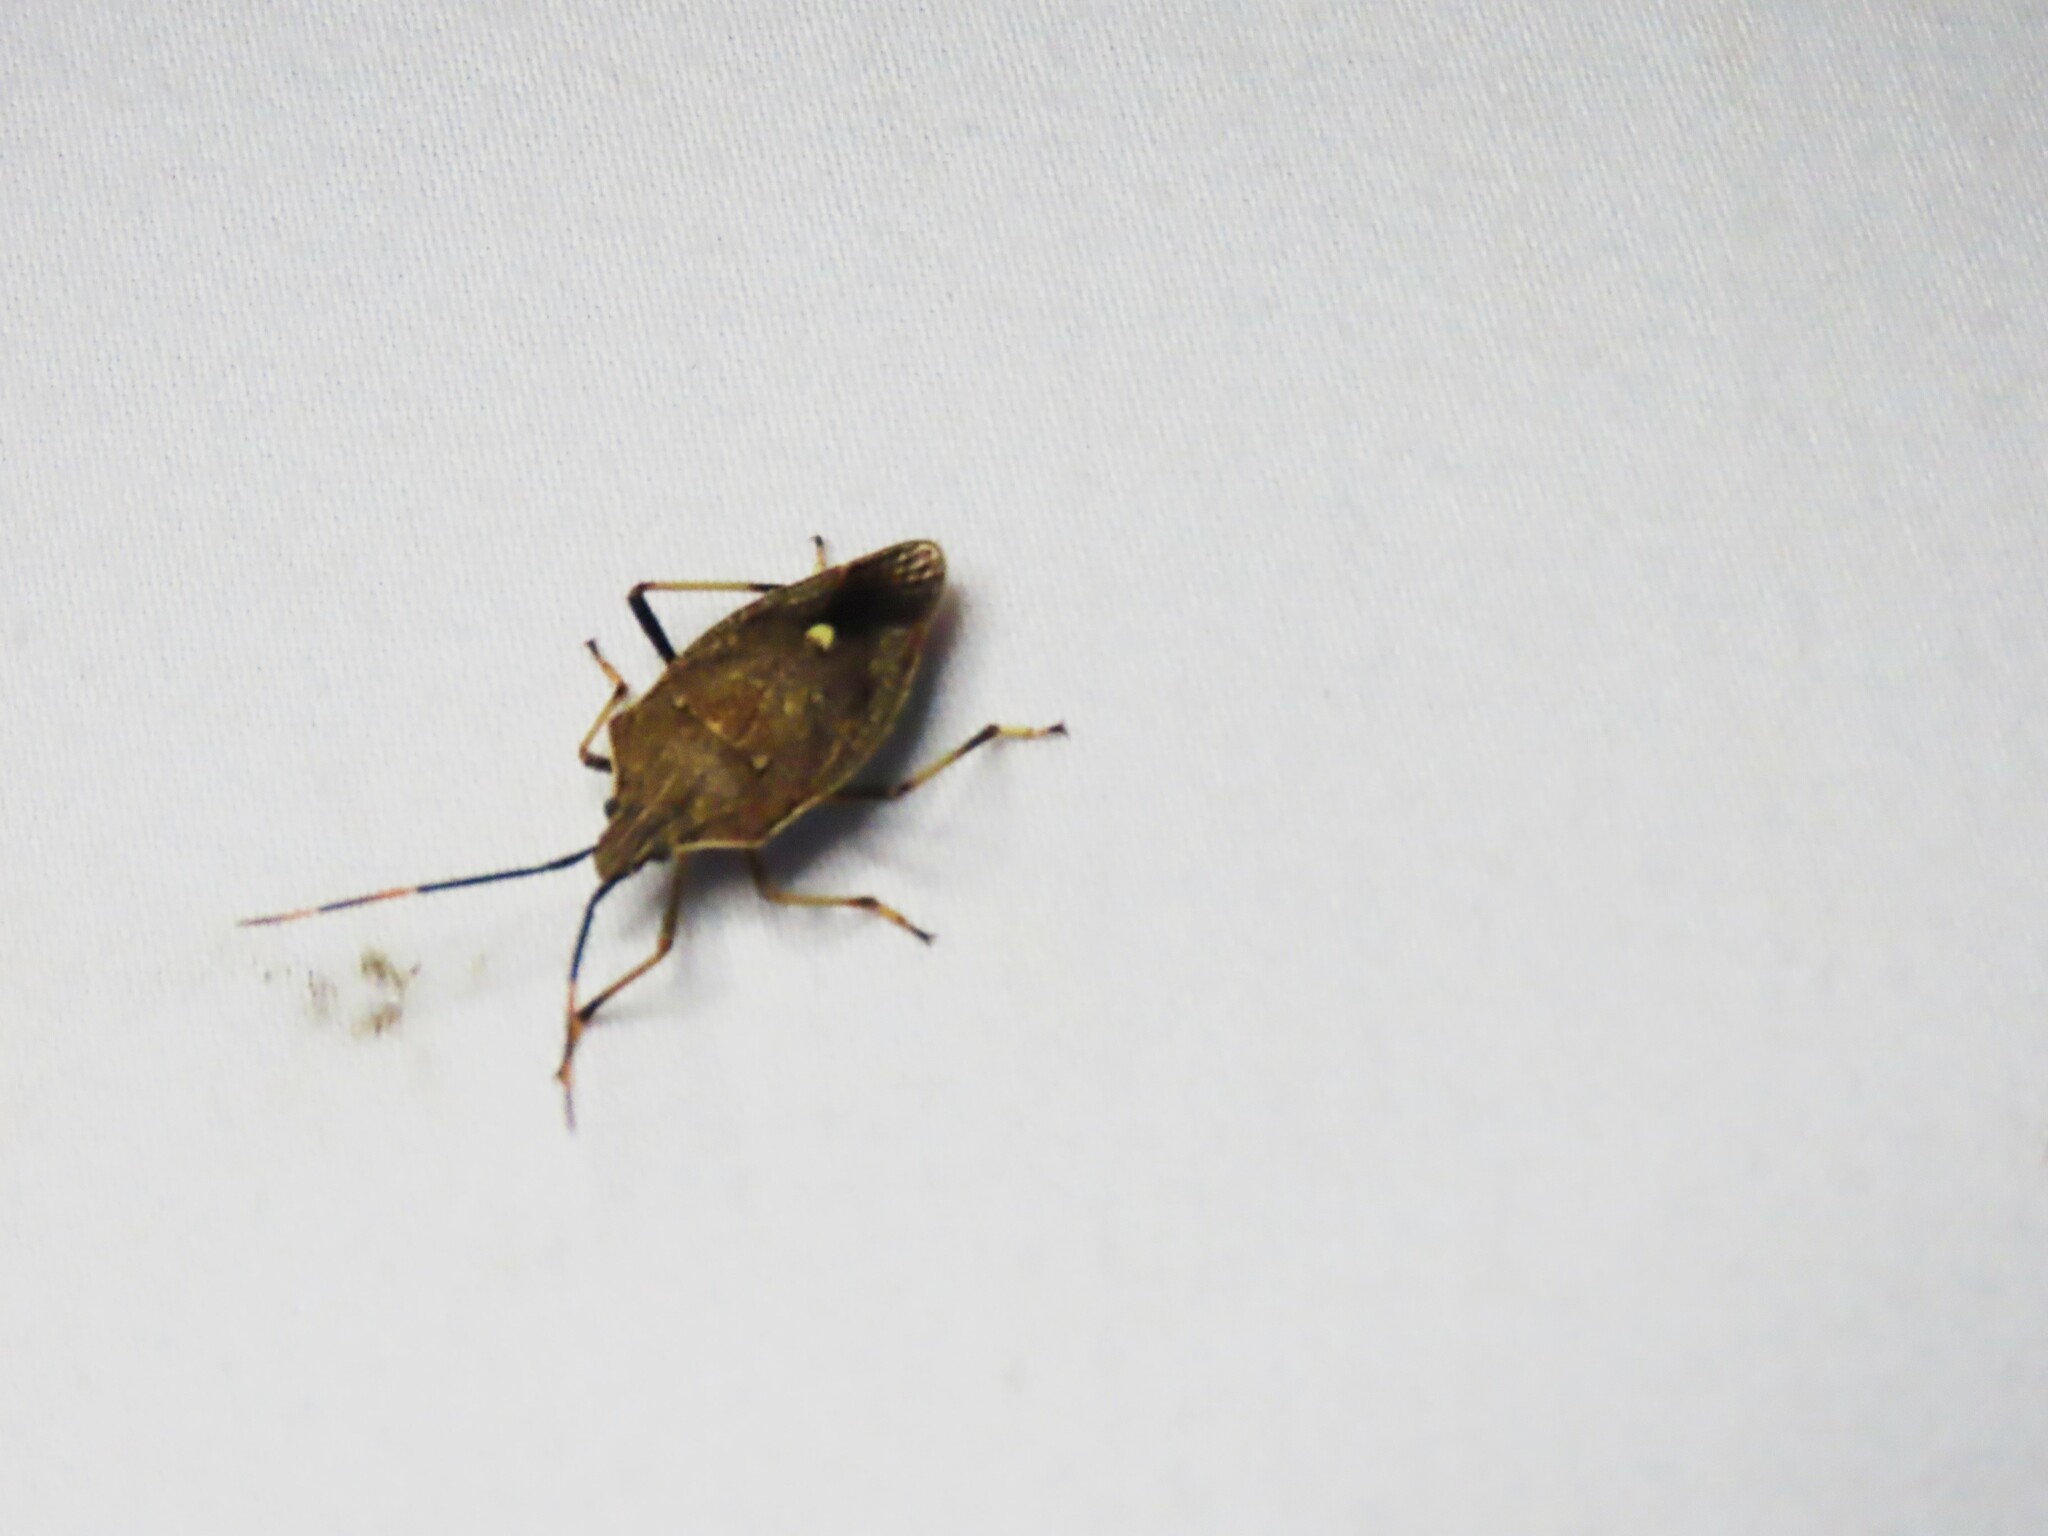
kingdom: Animalia
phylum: Arthropoda
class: Insecta
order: Hemiptera
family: Pentatomidae
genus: Poecilometis
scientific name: Poecilometis
